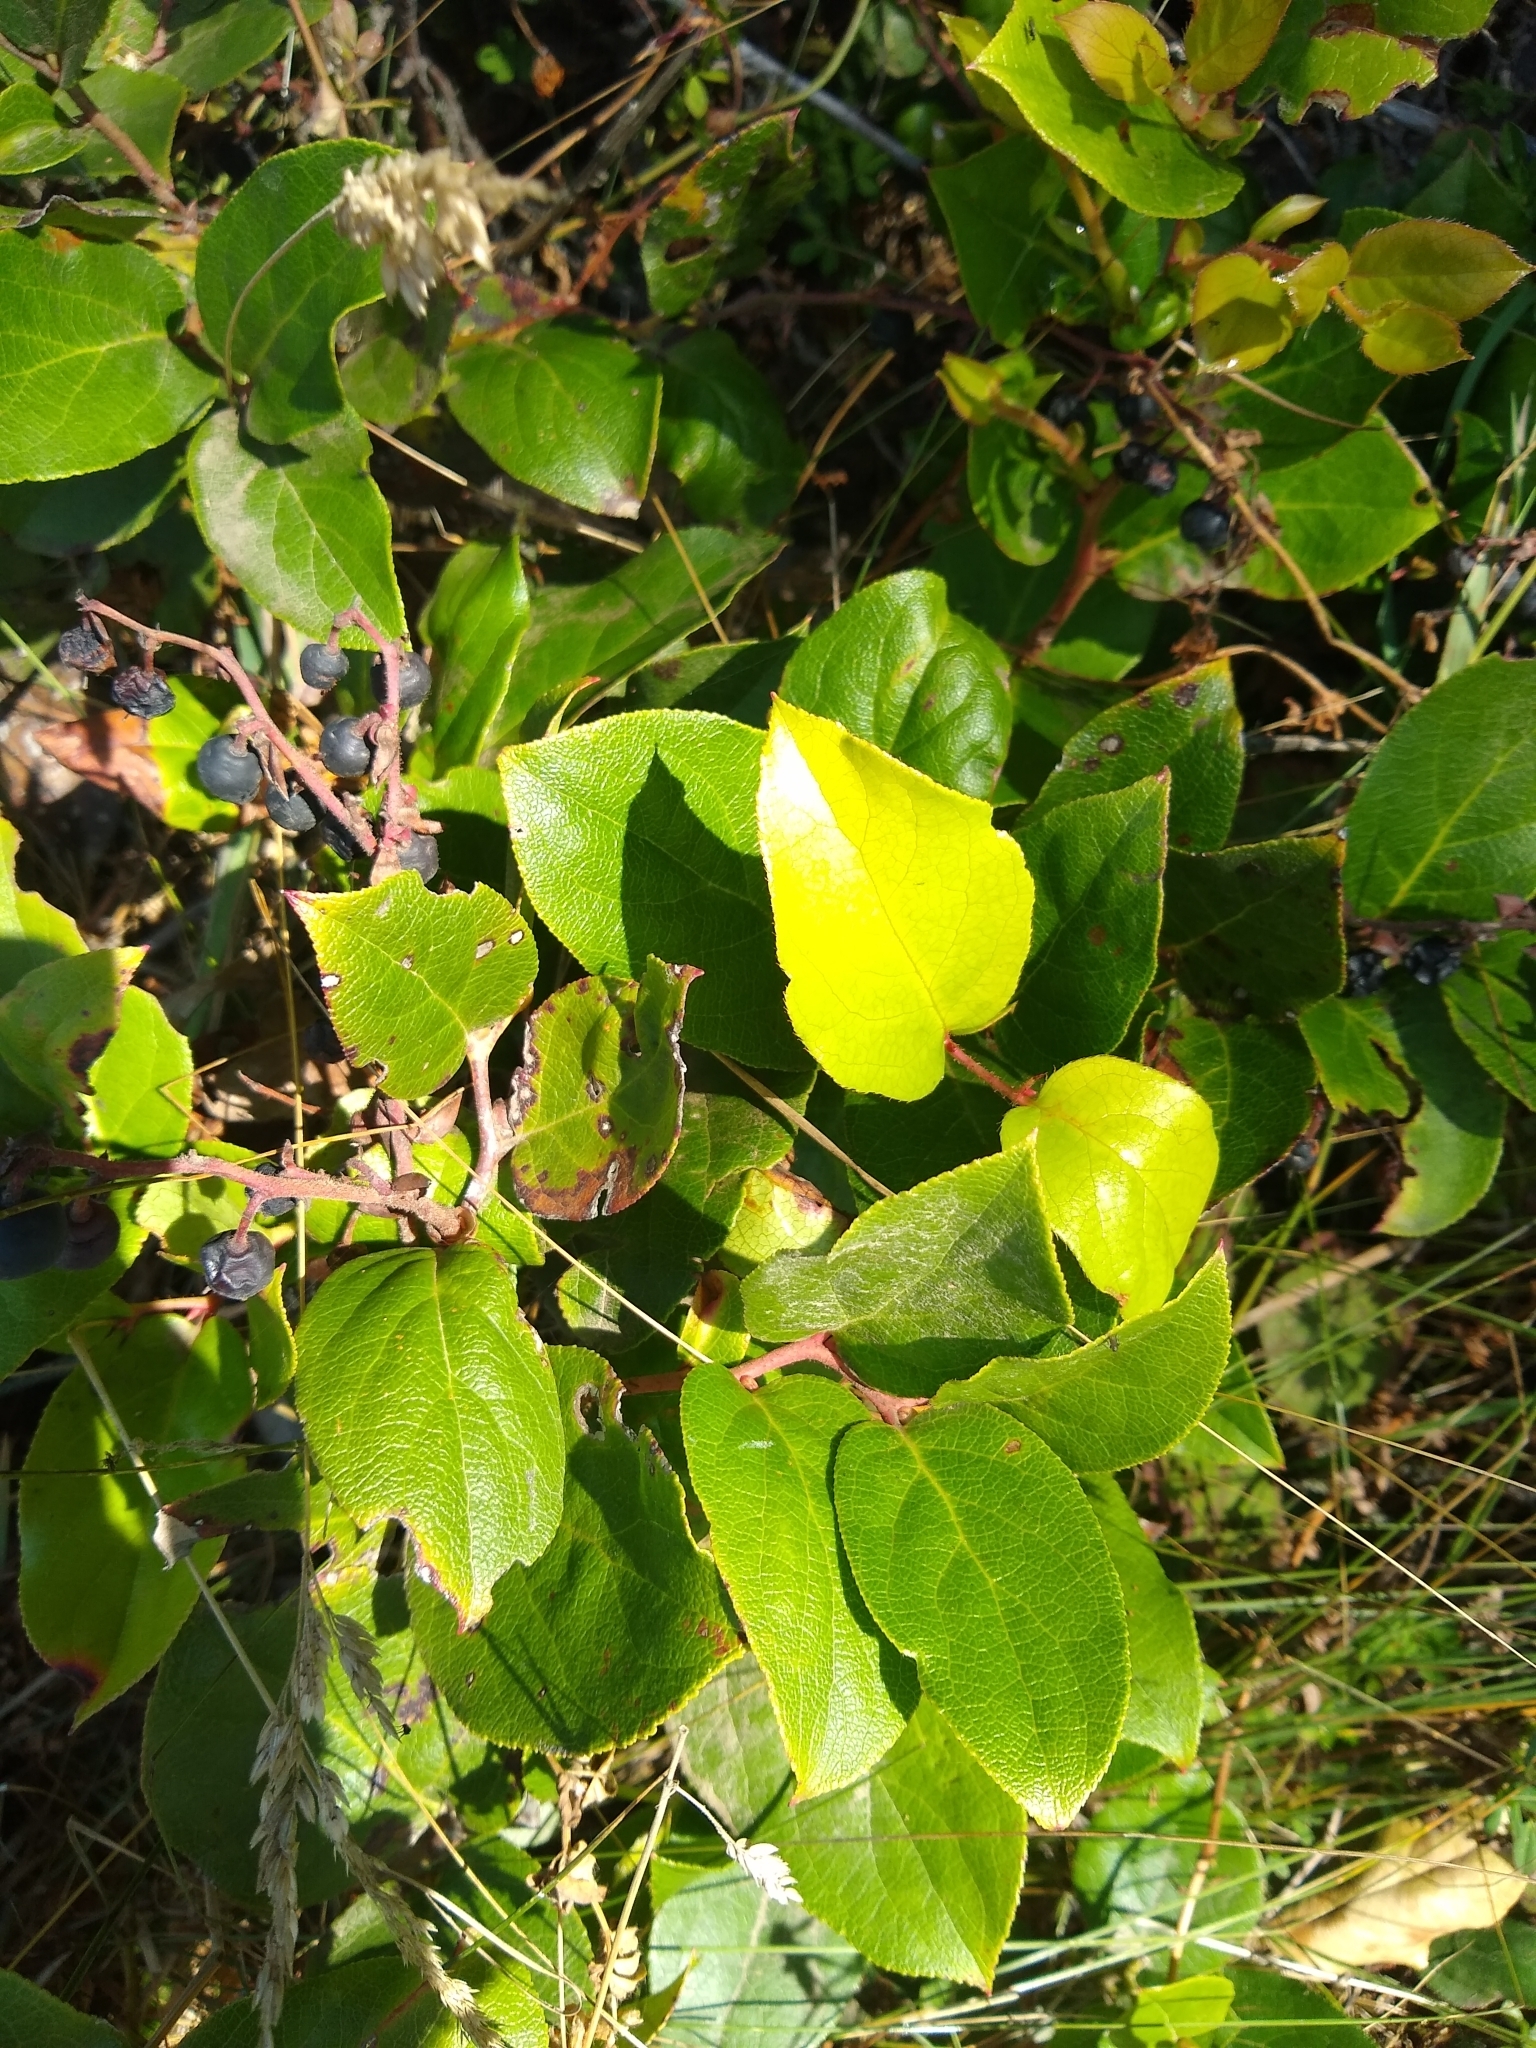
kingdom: Plantae
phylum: Tracheophyta
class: Magnoliopsida
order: Ericales
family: Ericaceae
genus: Gaultheria
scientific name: Gaultheria shallon
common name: Shallon
